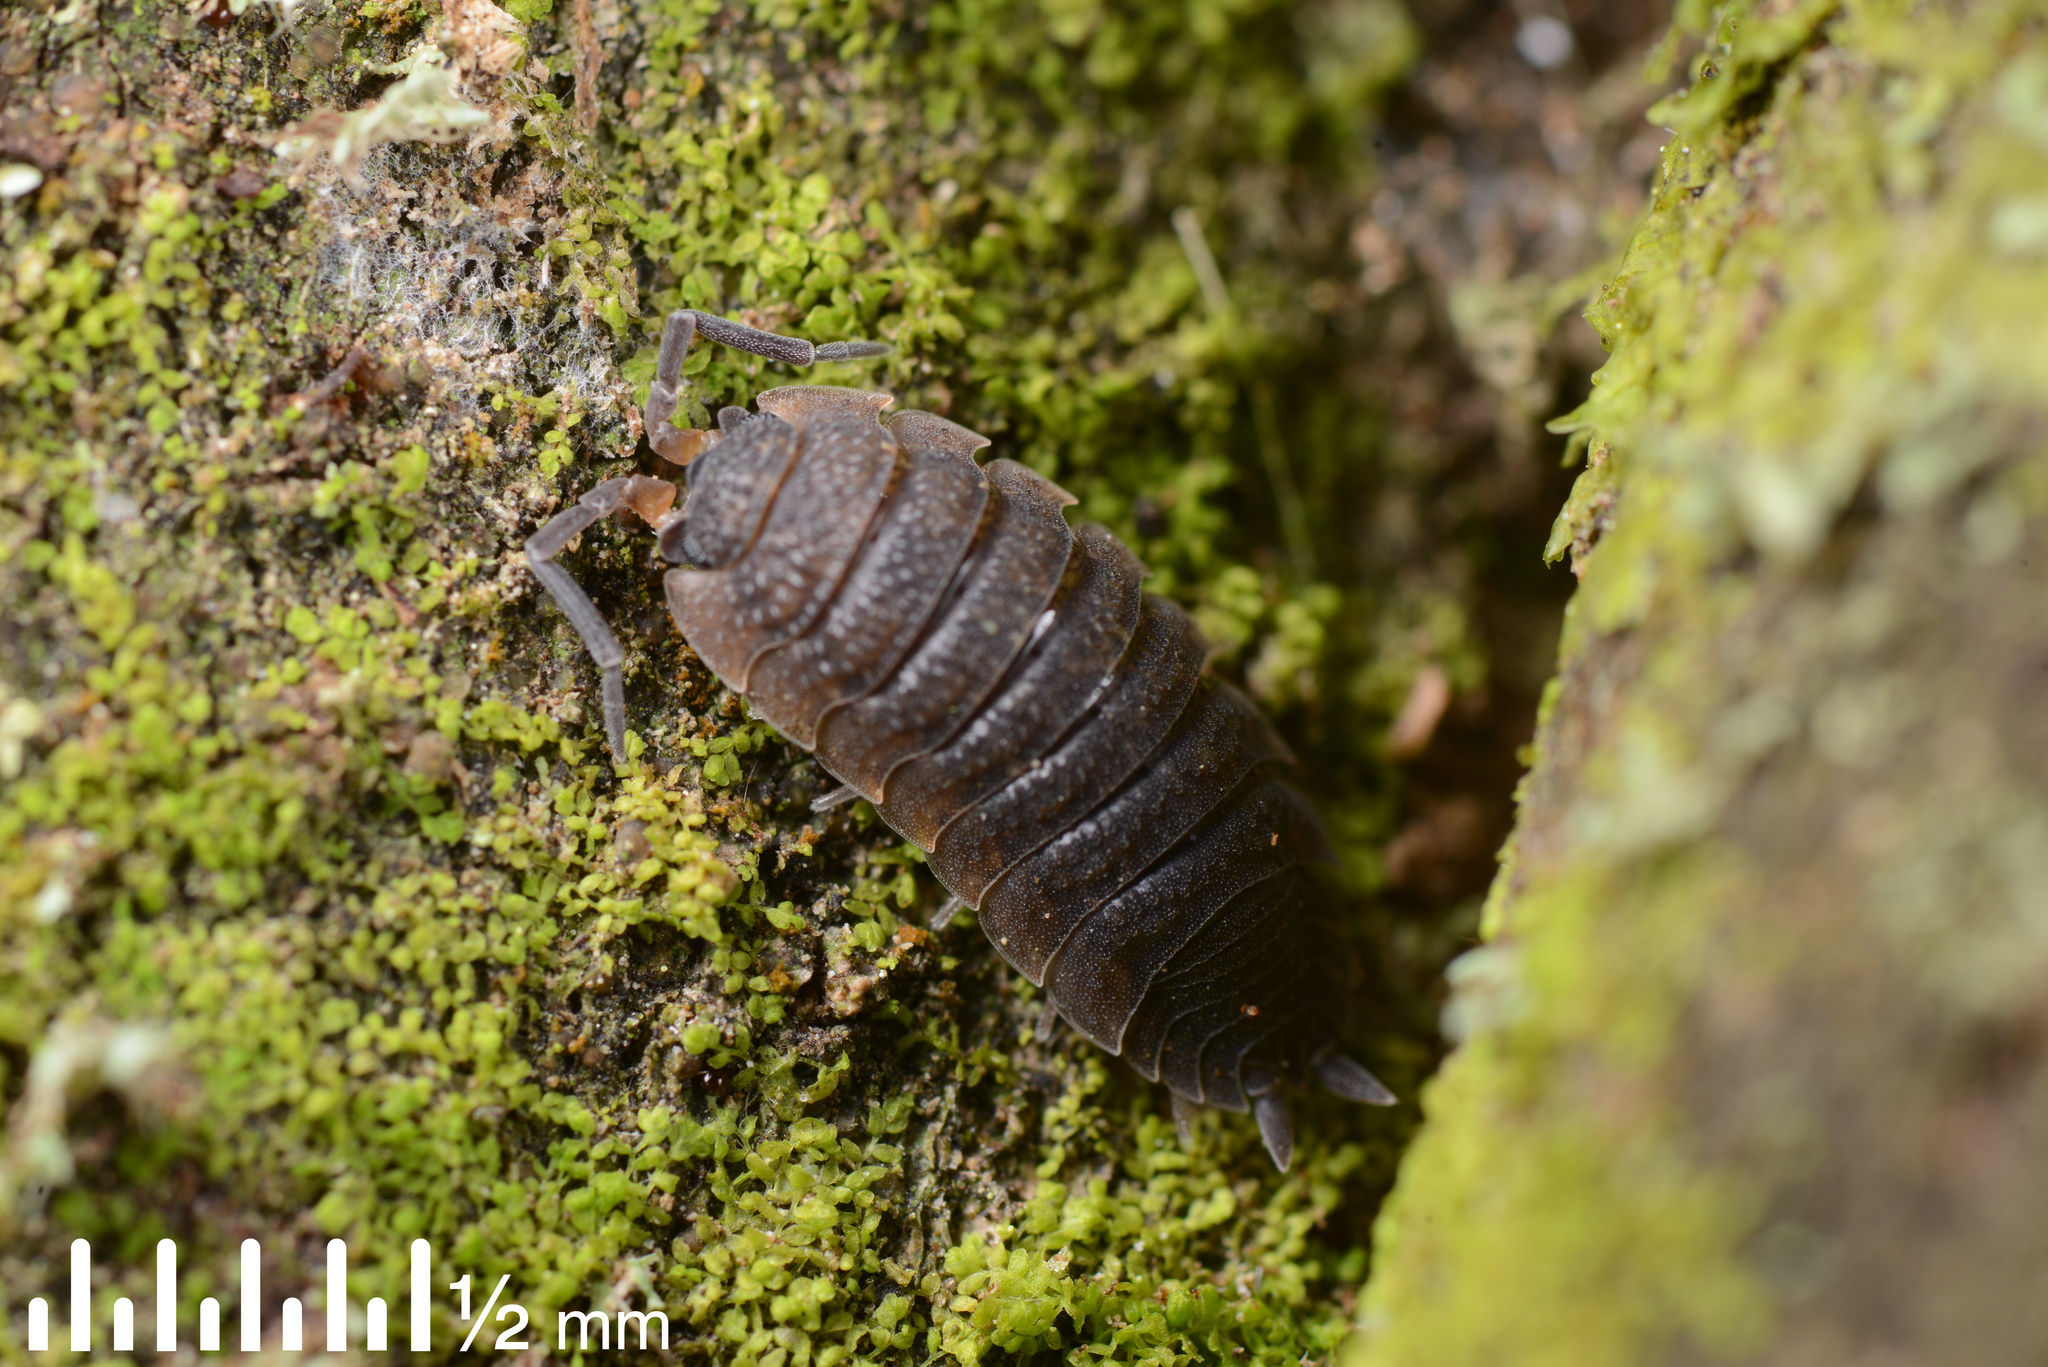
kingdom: Animalia
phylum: Arthropoda
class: Malacostraca
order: Isopoda
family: Porcellionidae
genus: Porcellio
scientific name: Porcellio scaber
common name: Common rough woodlouse
